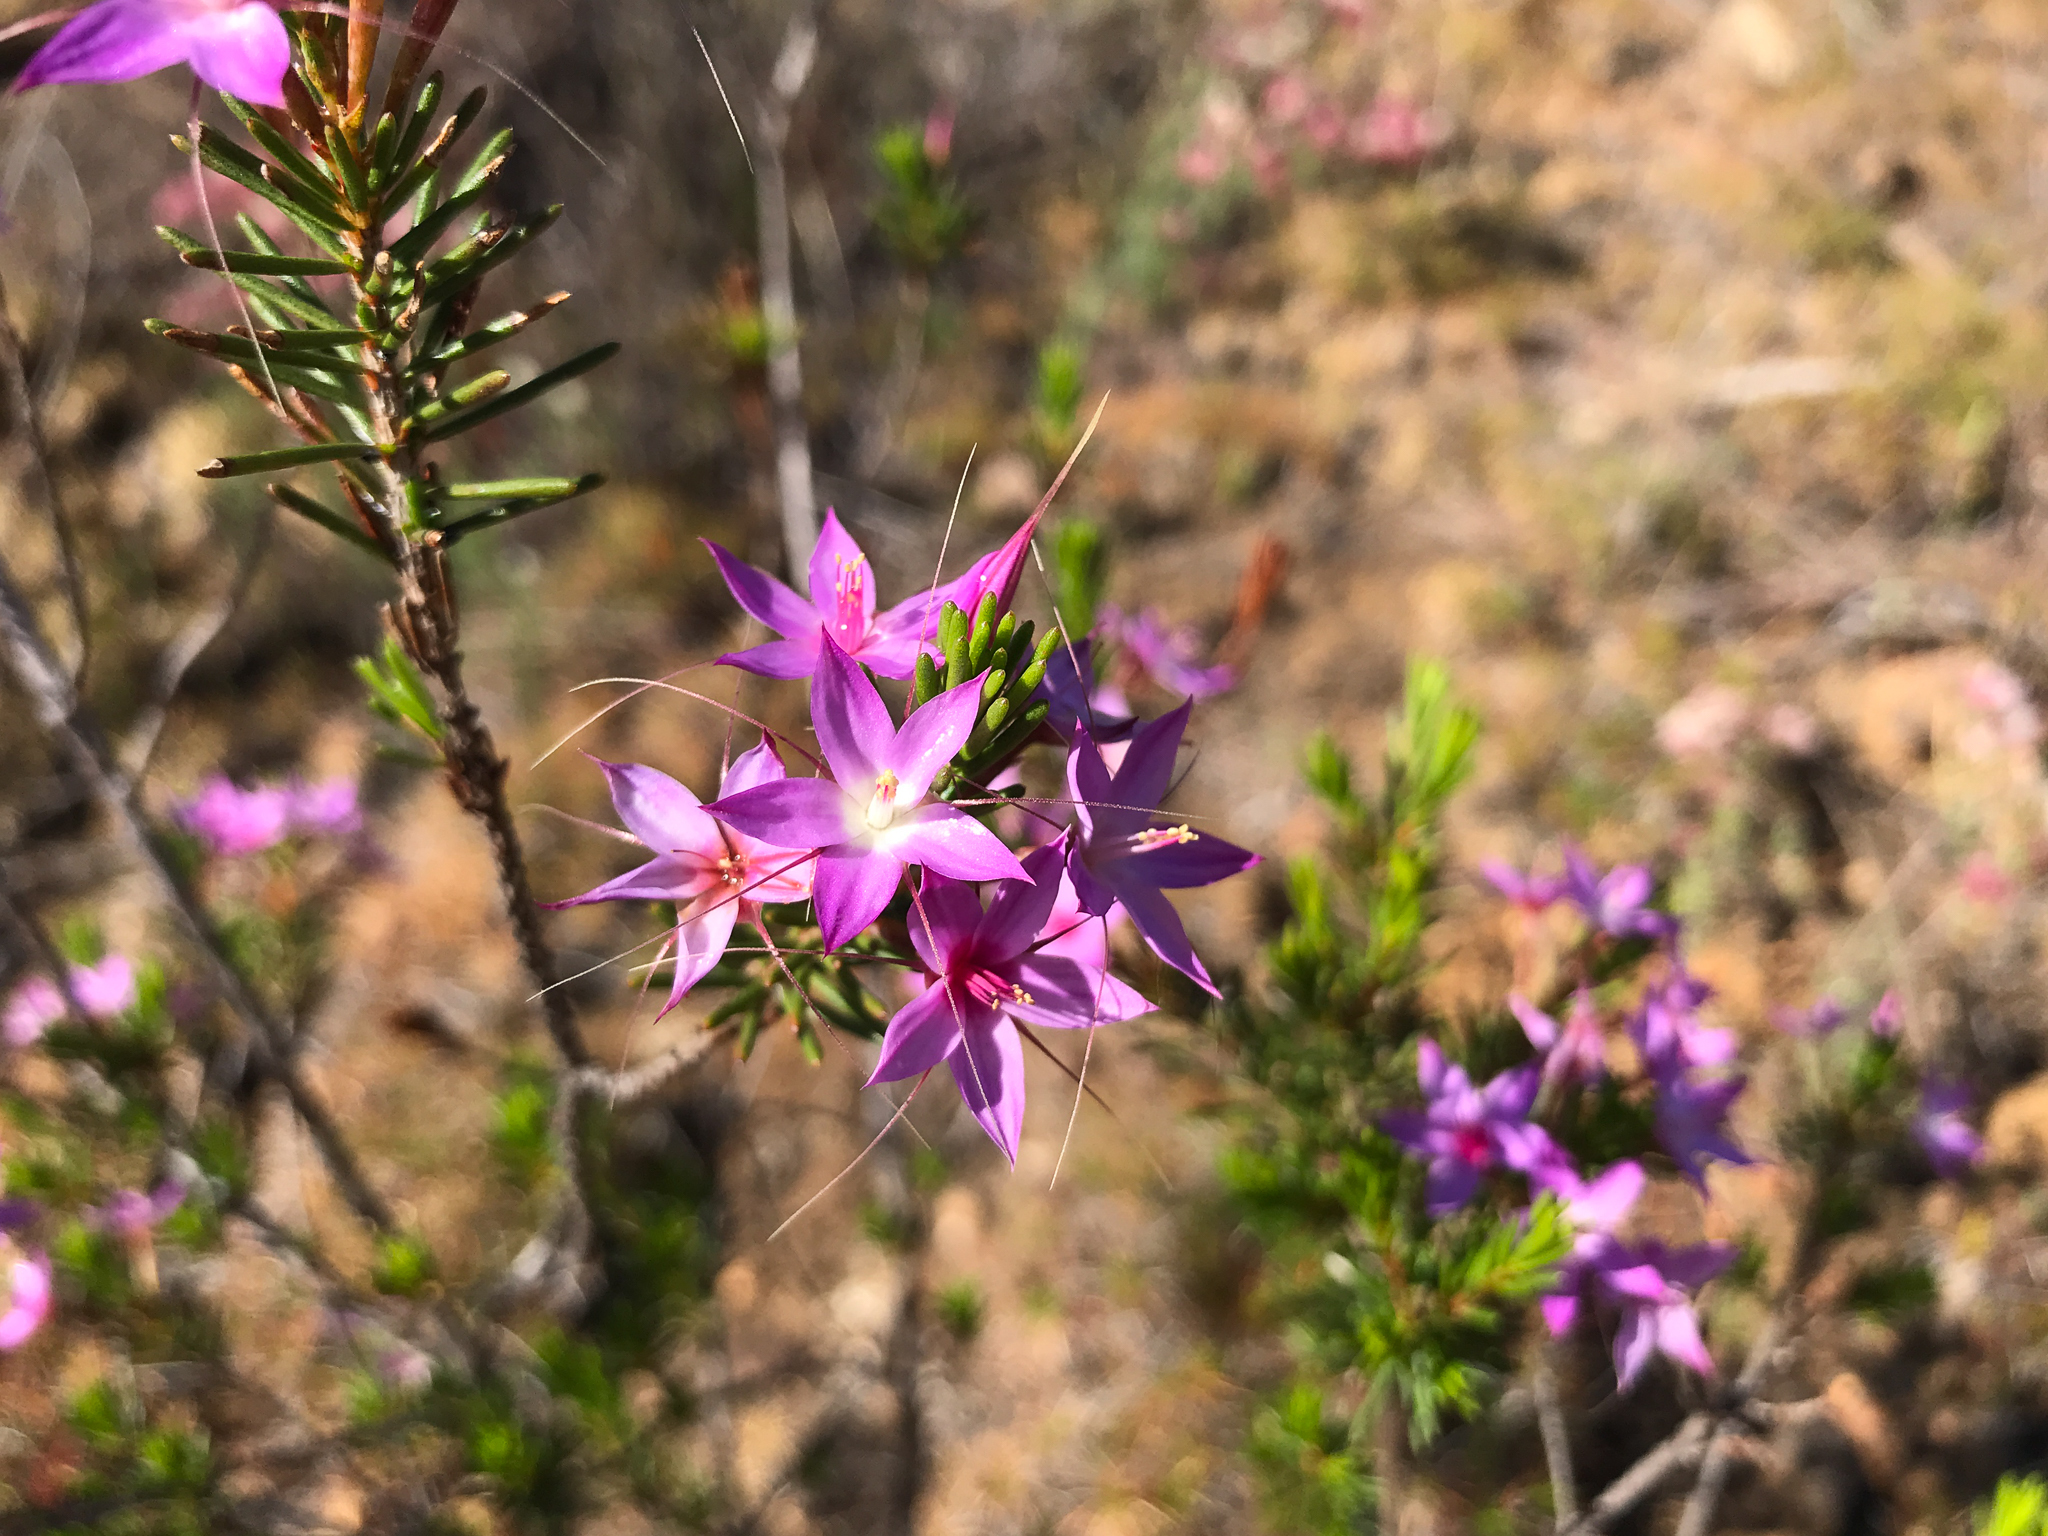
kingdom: Plantae
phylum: Tracheophyta
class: Magnoliopsida
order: Myrtales
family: Myrtaceae
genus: Calytrix
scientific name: Calytrix glutinosa
